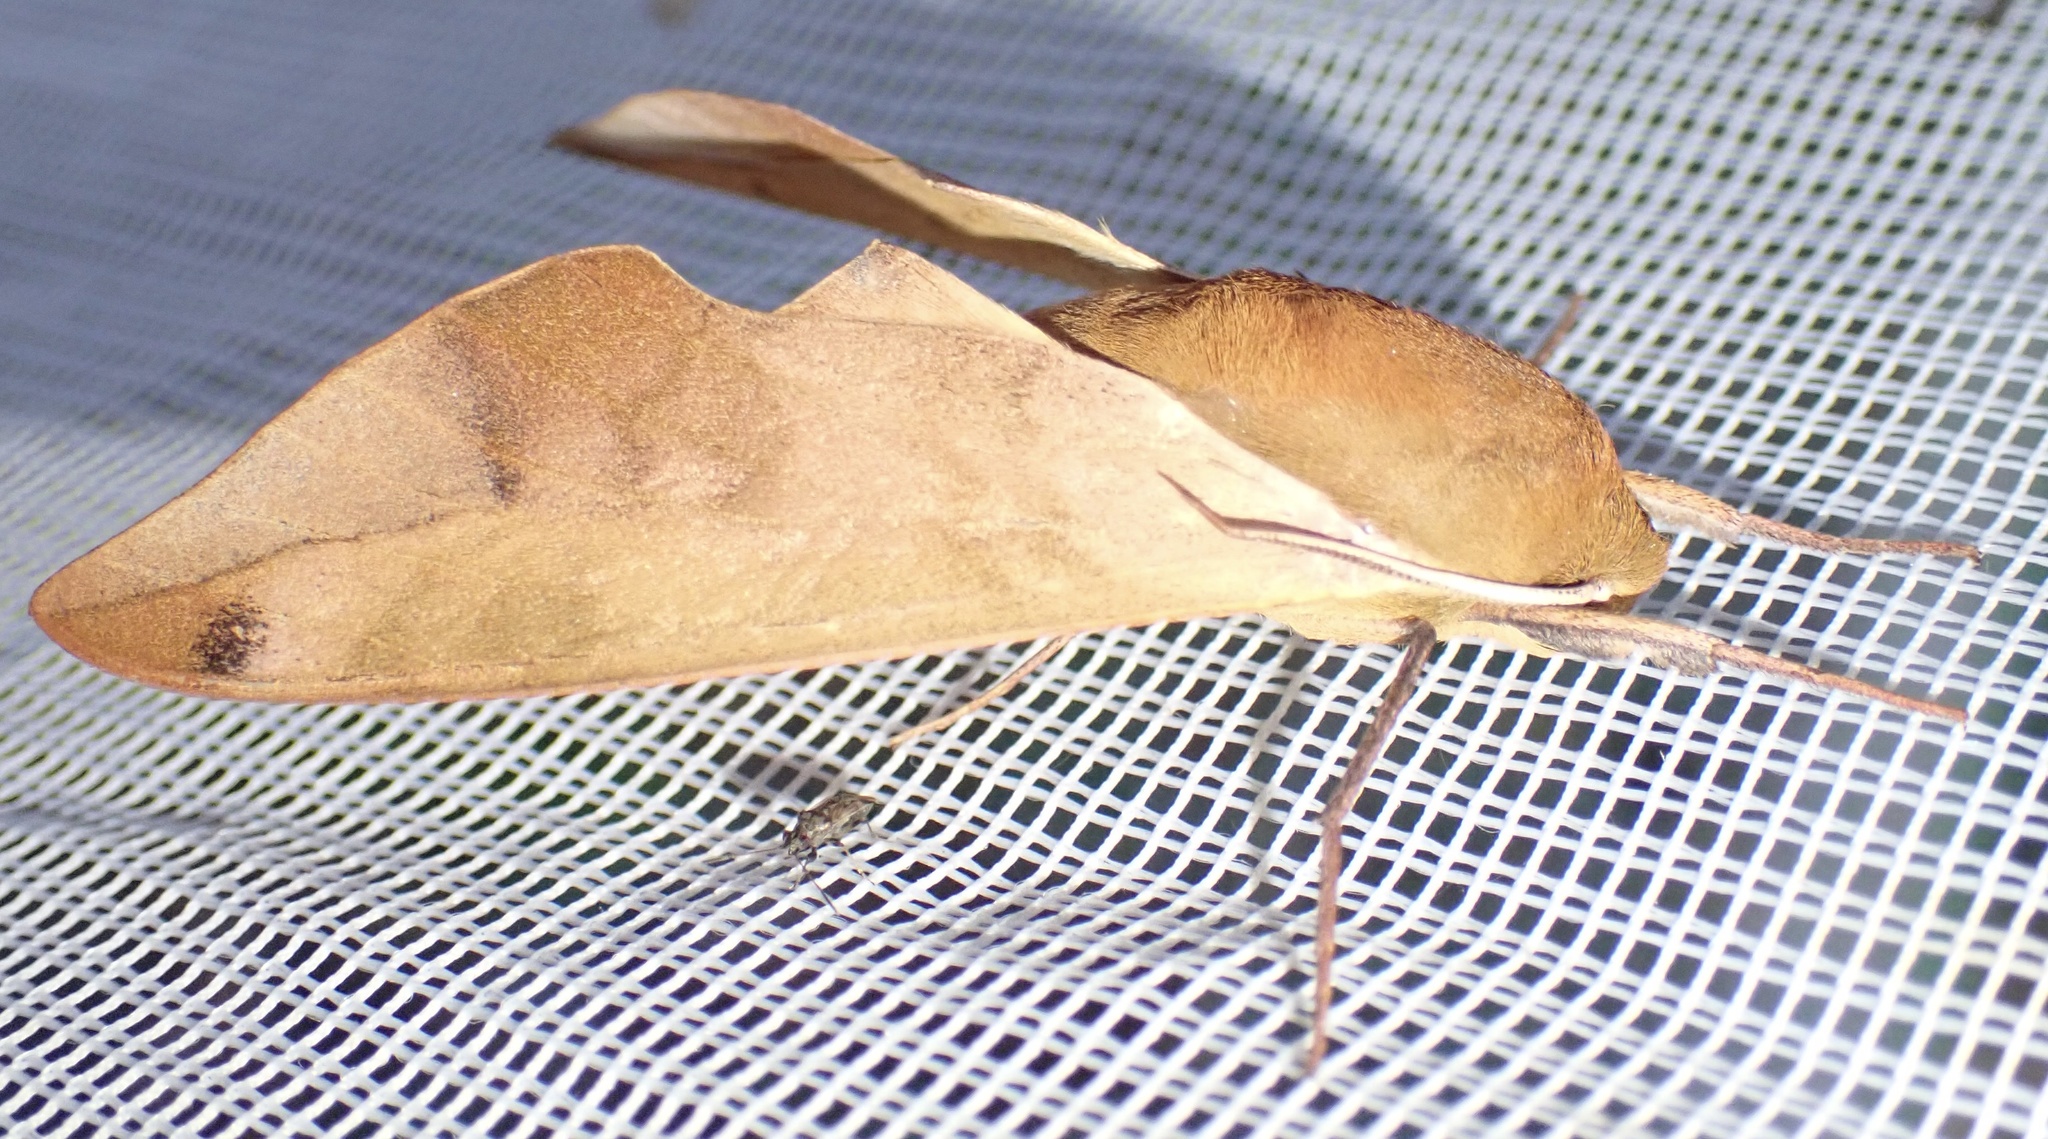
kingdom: Animalia
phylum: Arthropoda
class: Insecta
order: Lepidoptera
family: Sphingidae
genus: Phylloxiphia
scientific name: Phylloxiphia vicina
